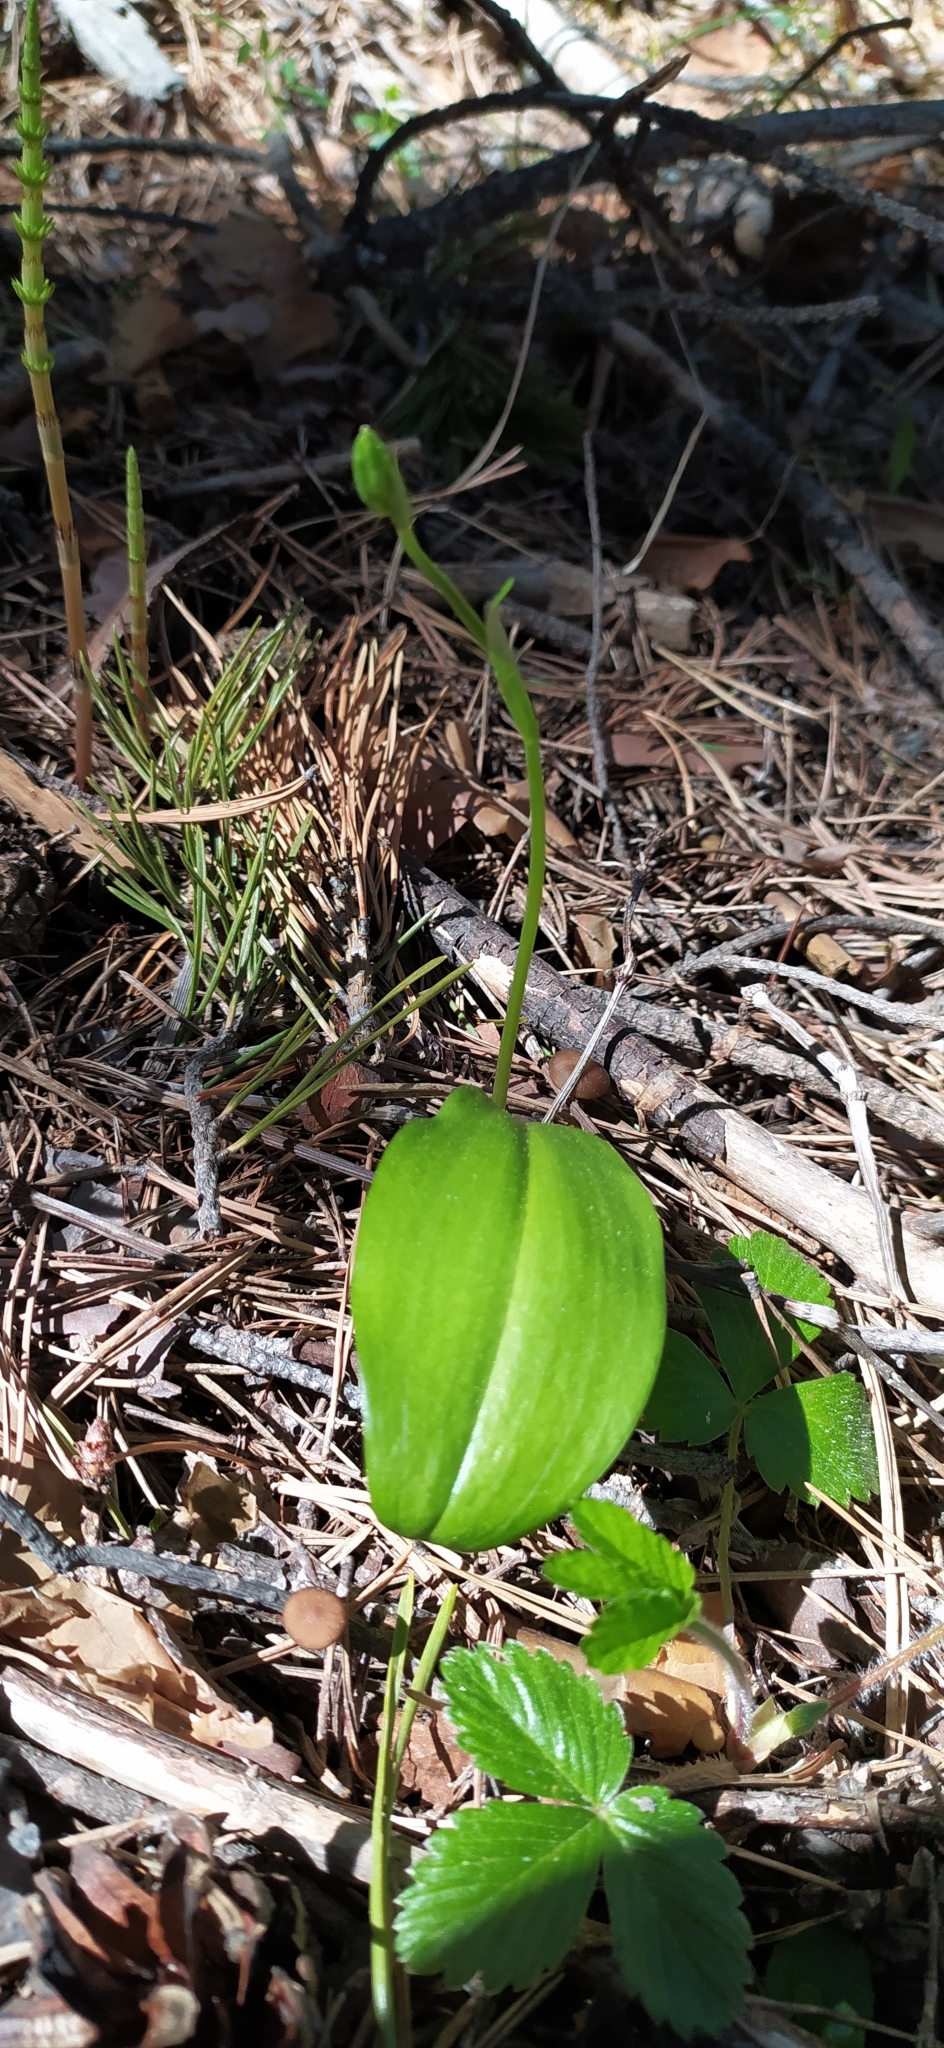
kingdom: Plantae
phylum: Tracheophyta
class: Liliopsida
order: Asparagales
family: Orchidaceae
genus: Platanthera
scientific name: Platanthera bifolia
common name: Lesser butterfly-orchid
